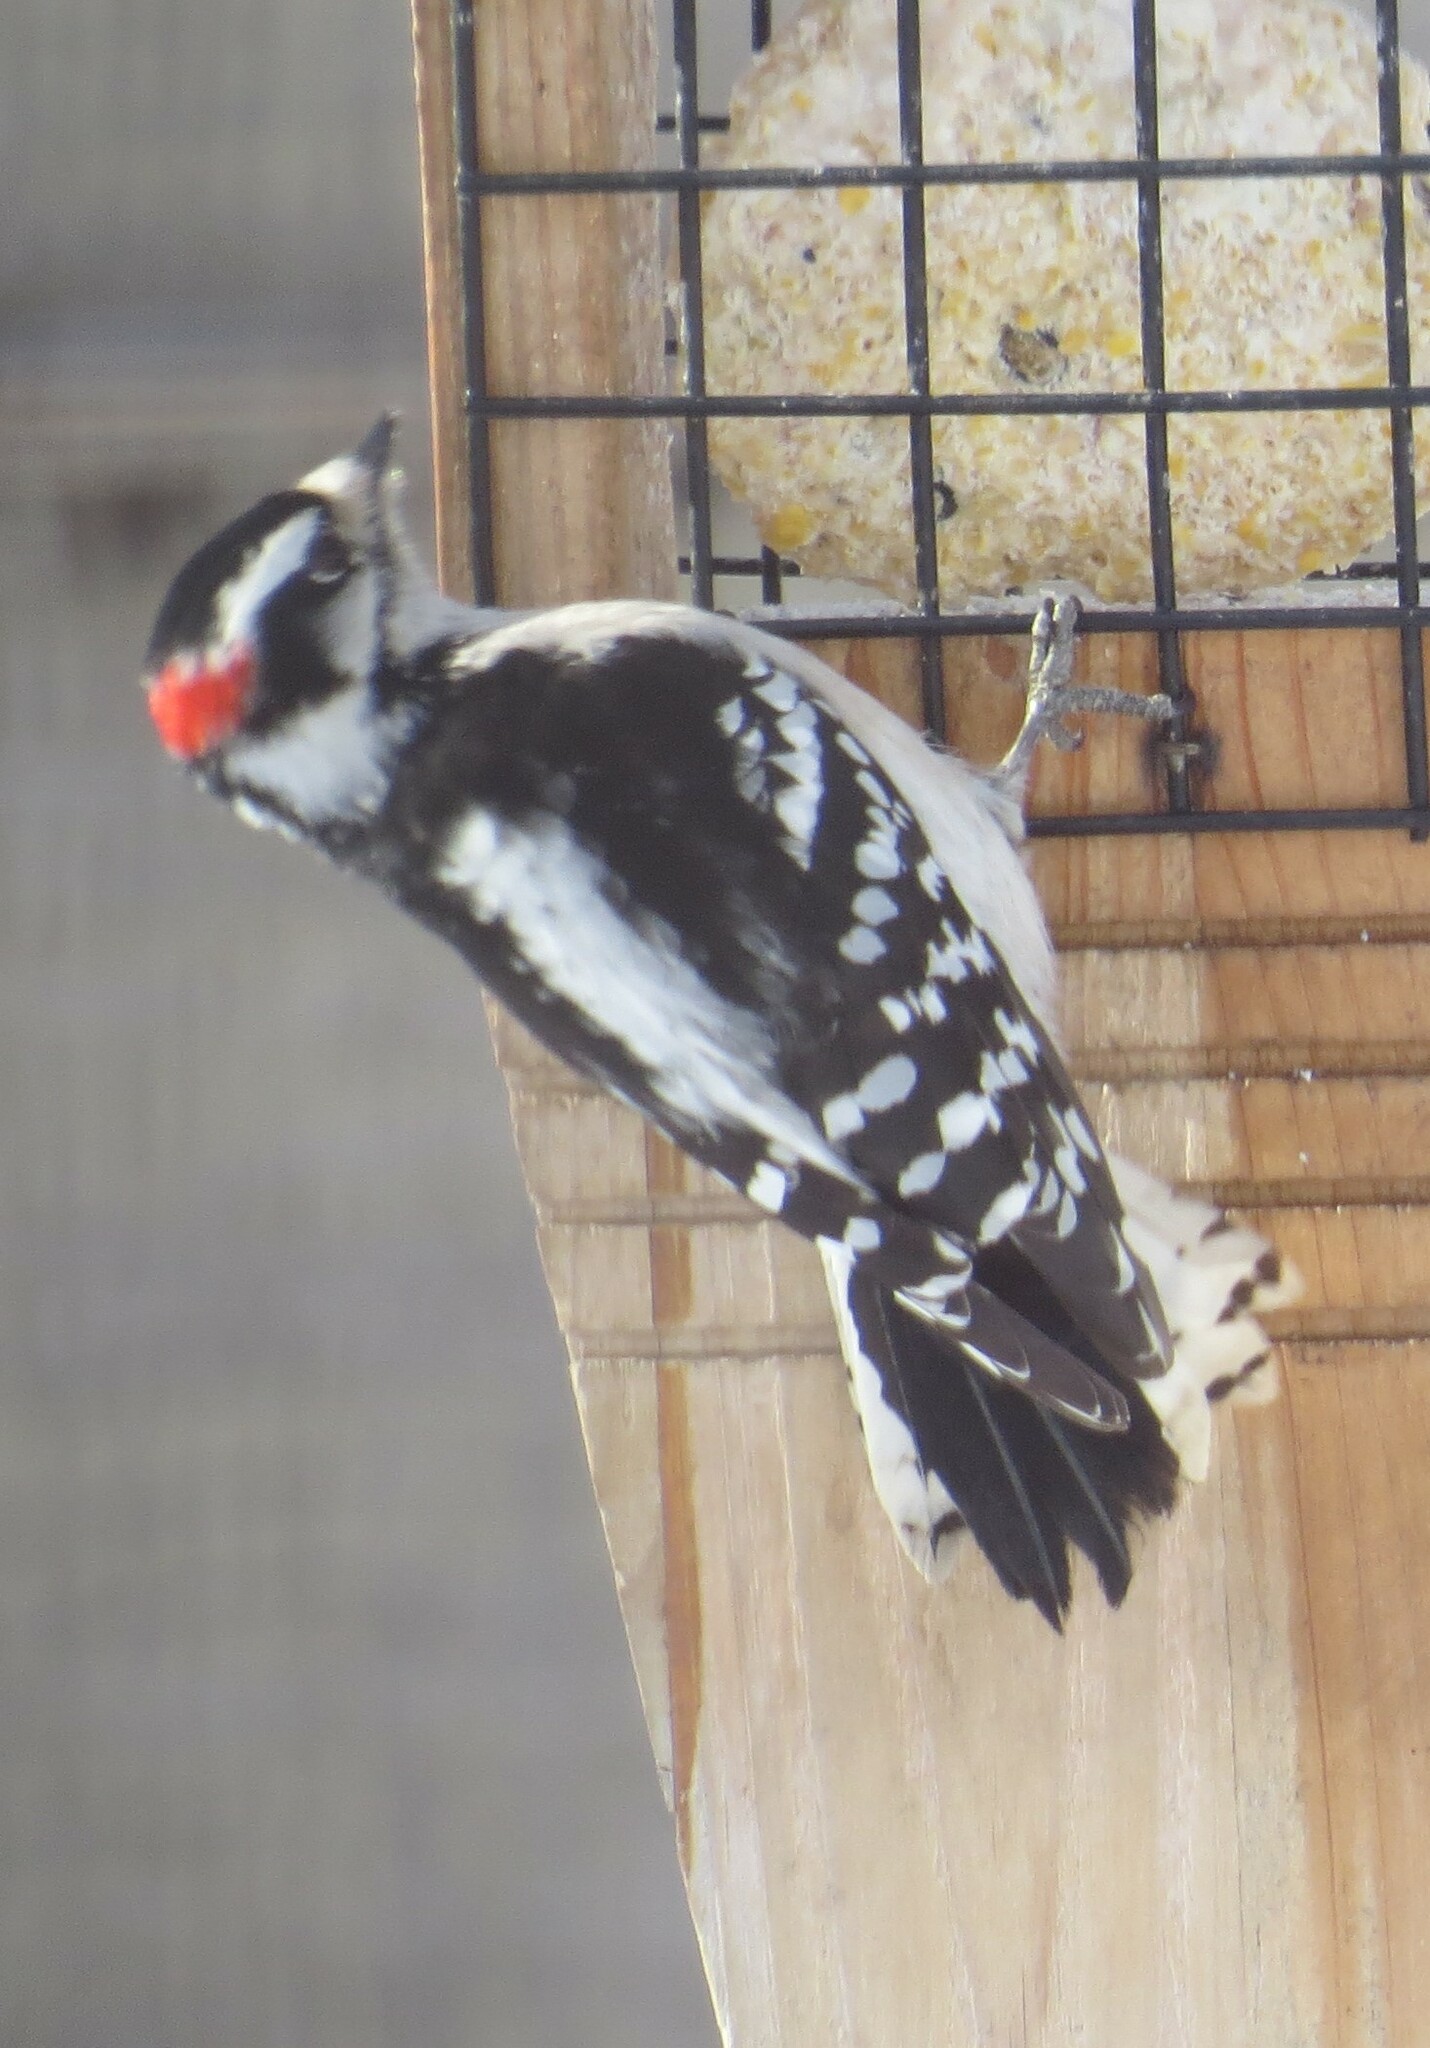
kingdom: Animalia
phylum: Chordata
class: Aves
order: Piciformes
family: Picidae
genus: Dryobates
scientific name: Dryobates pubescens
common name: Downy woodpecker
